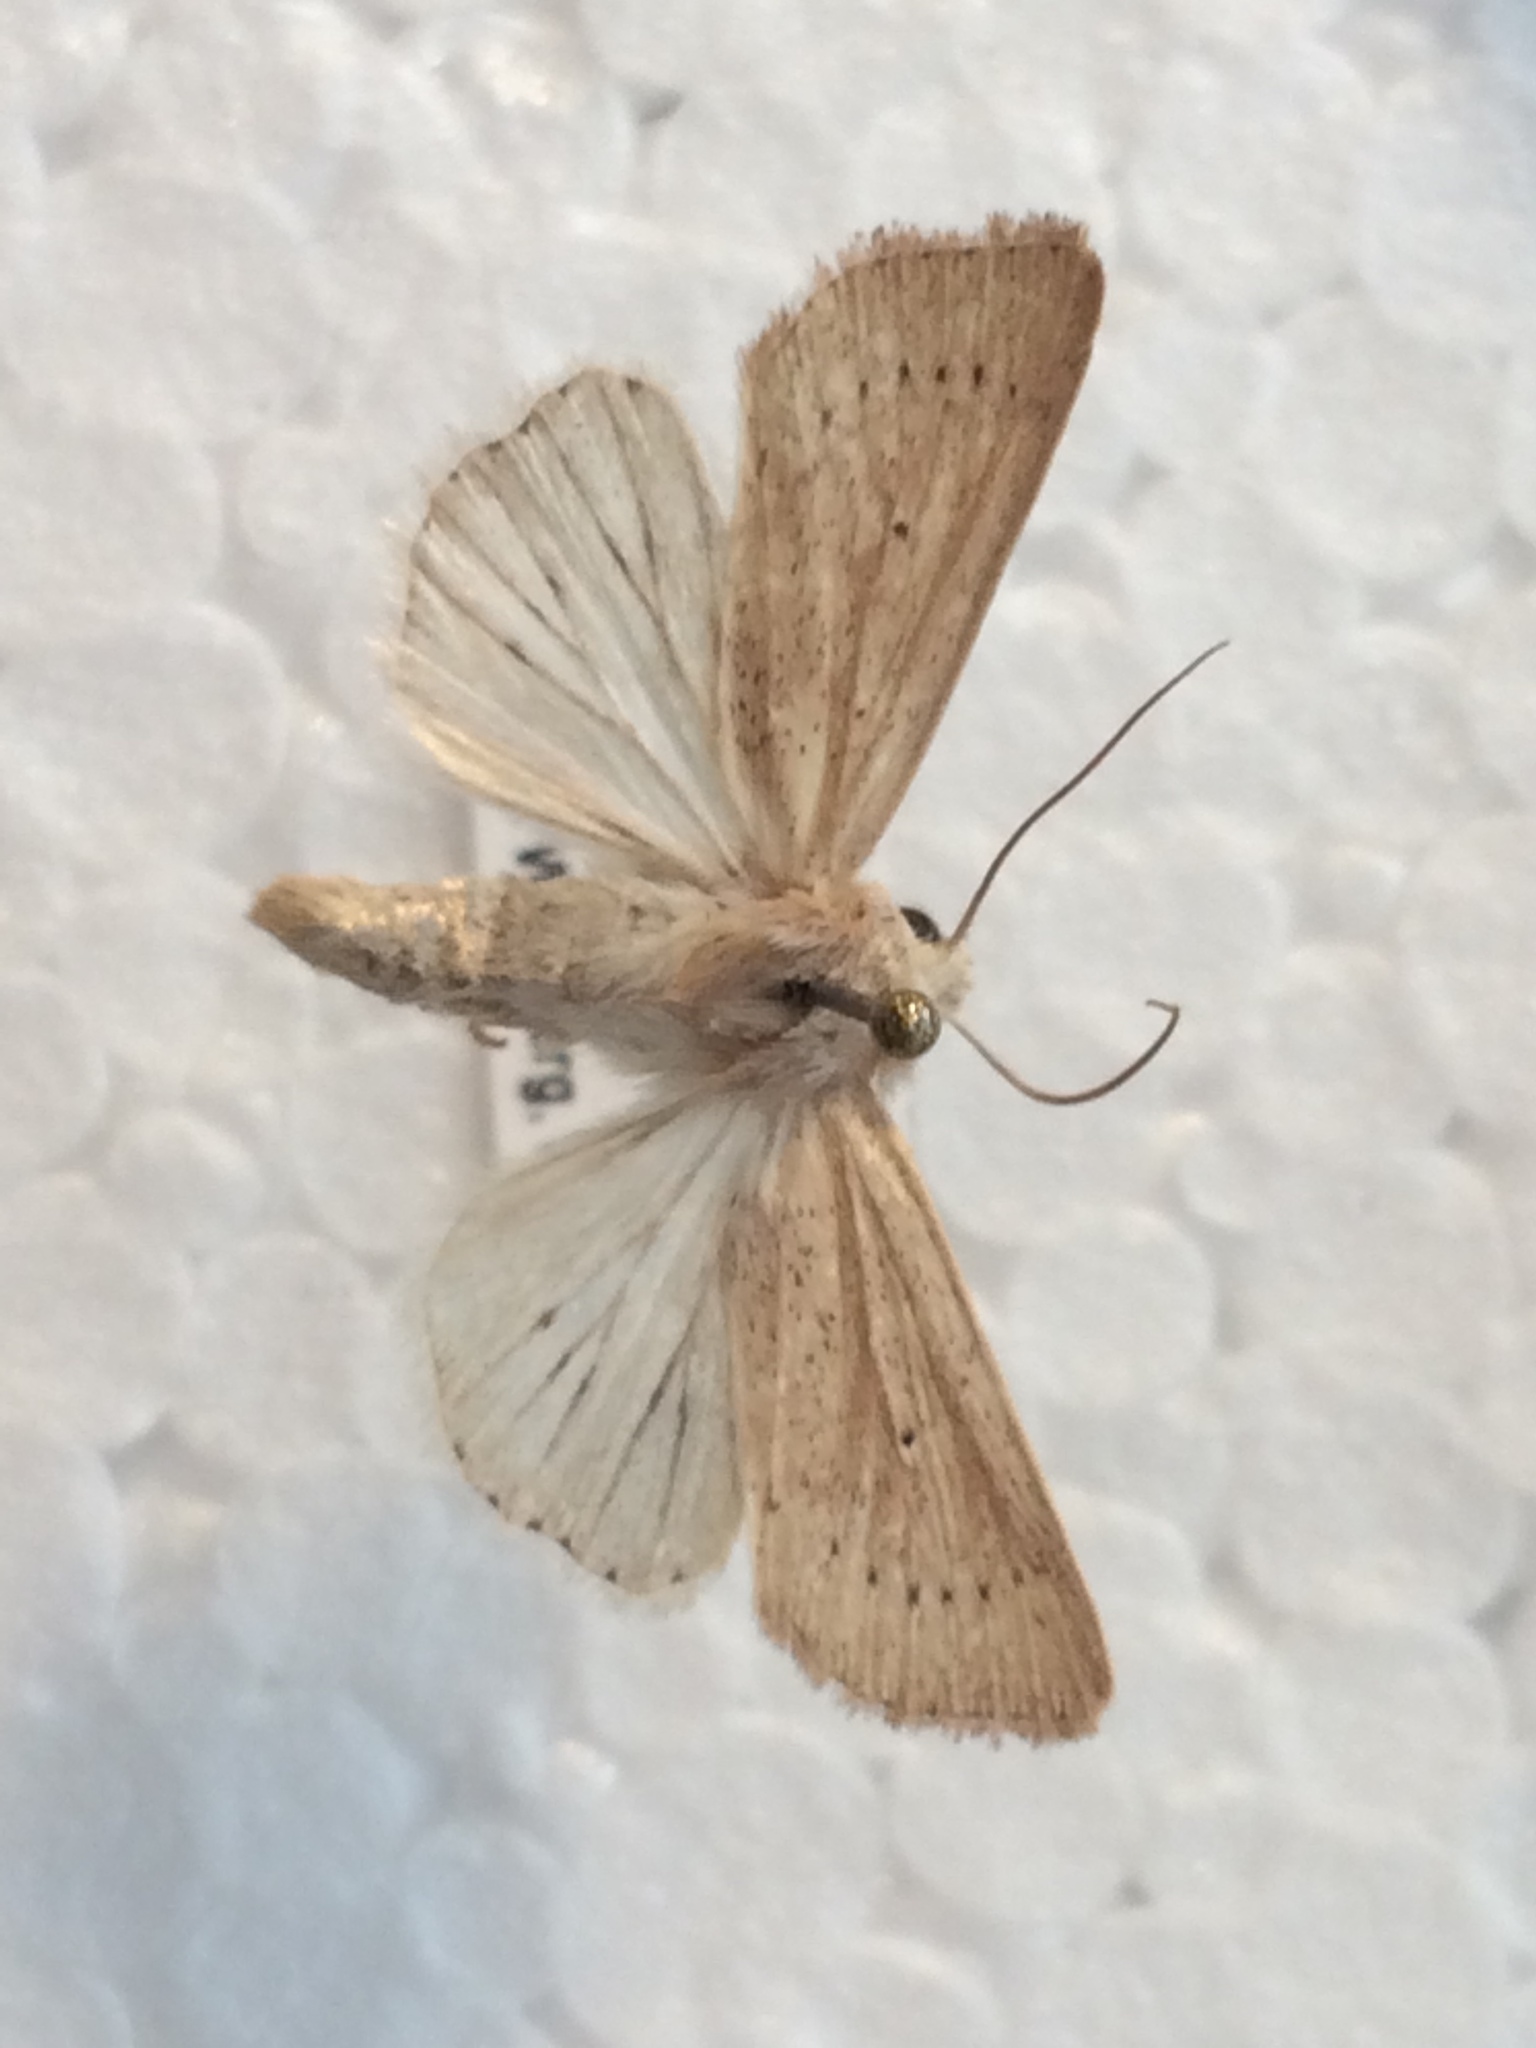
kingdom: Animalia
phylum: Arthropoda
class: Insecta
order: Lepidoptera
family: Noctuidae
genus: Mythimna
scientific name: Mythimna sicula
